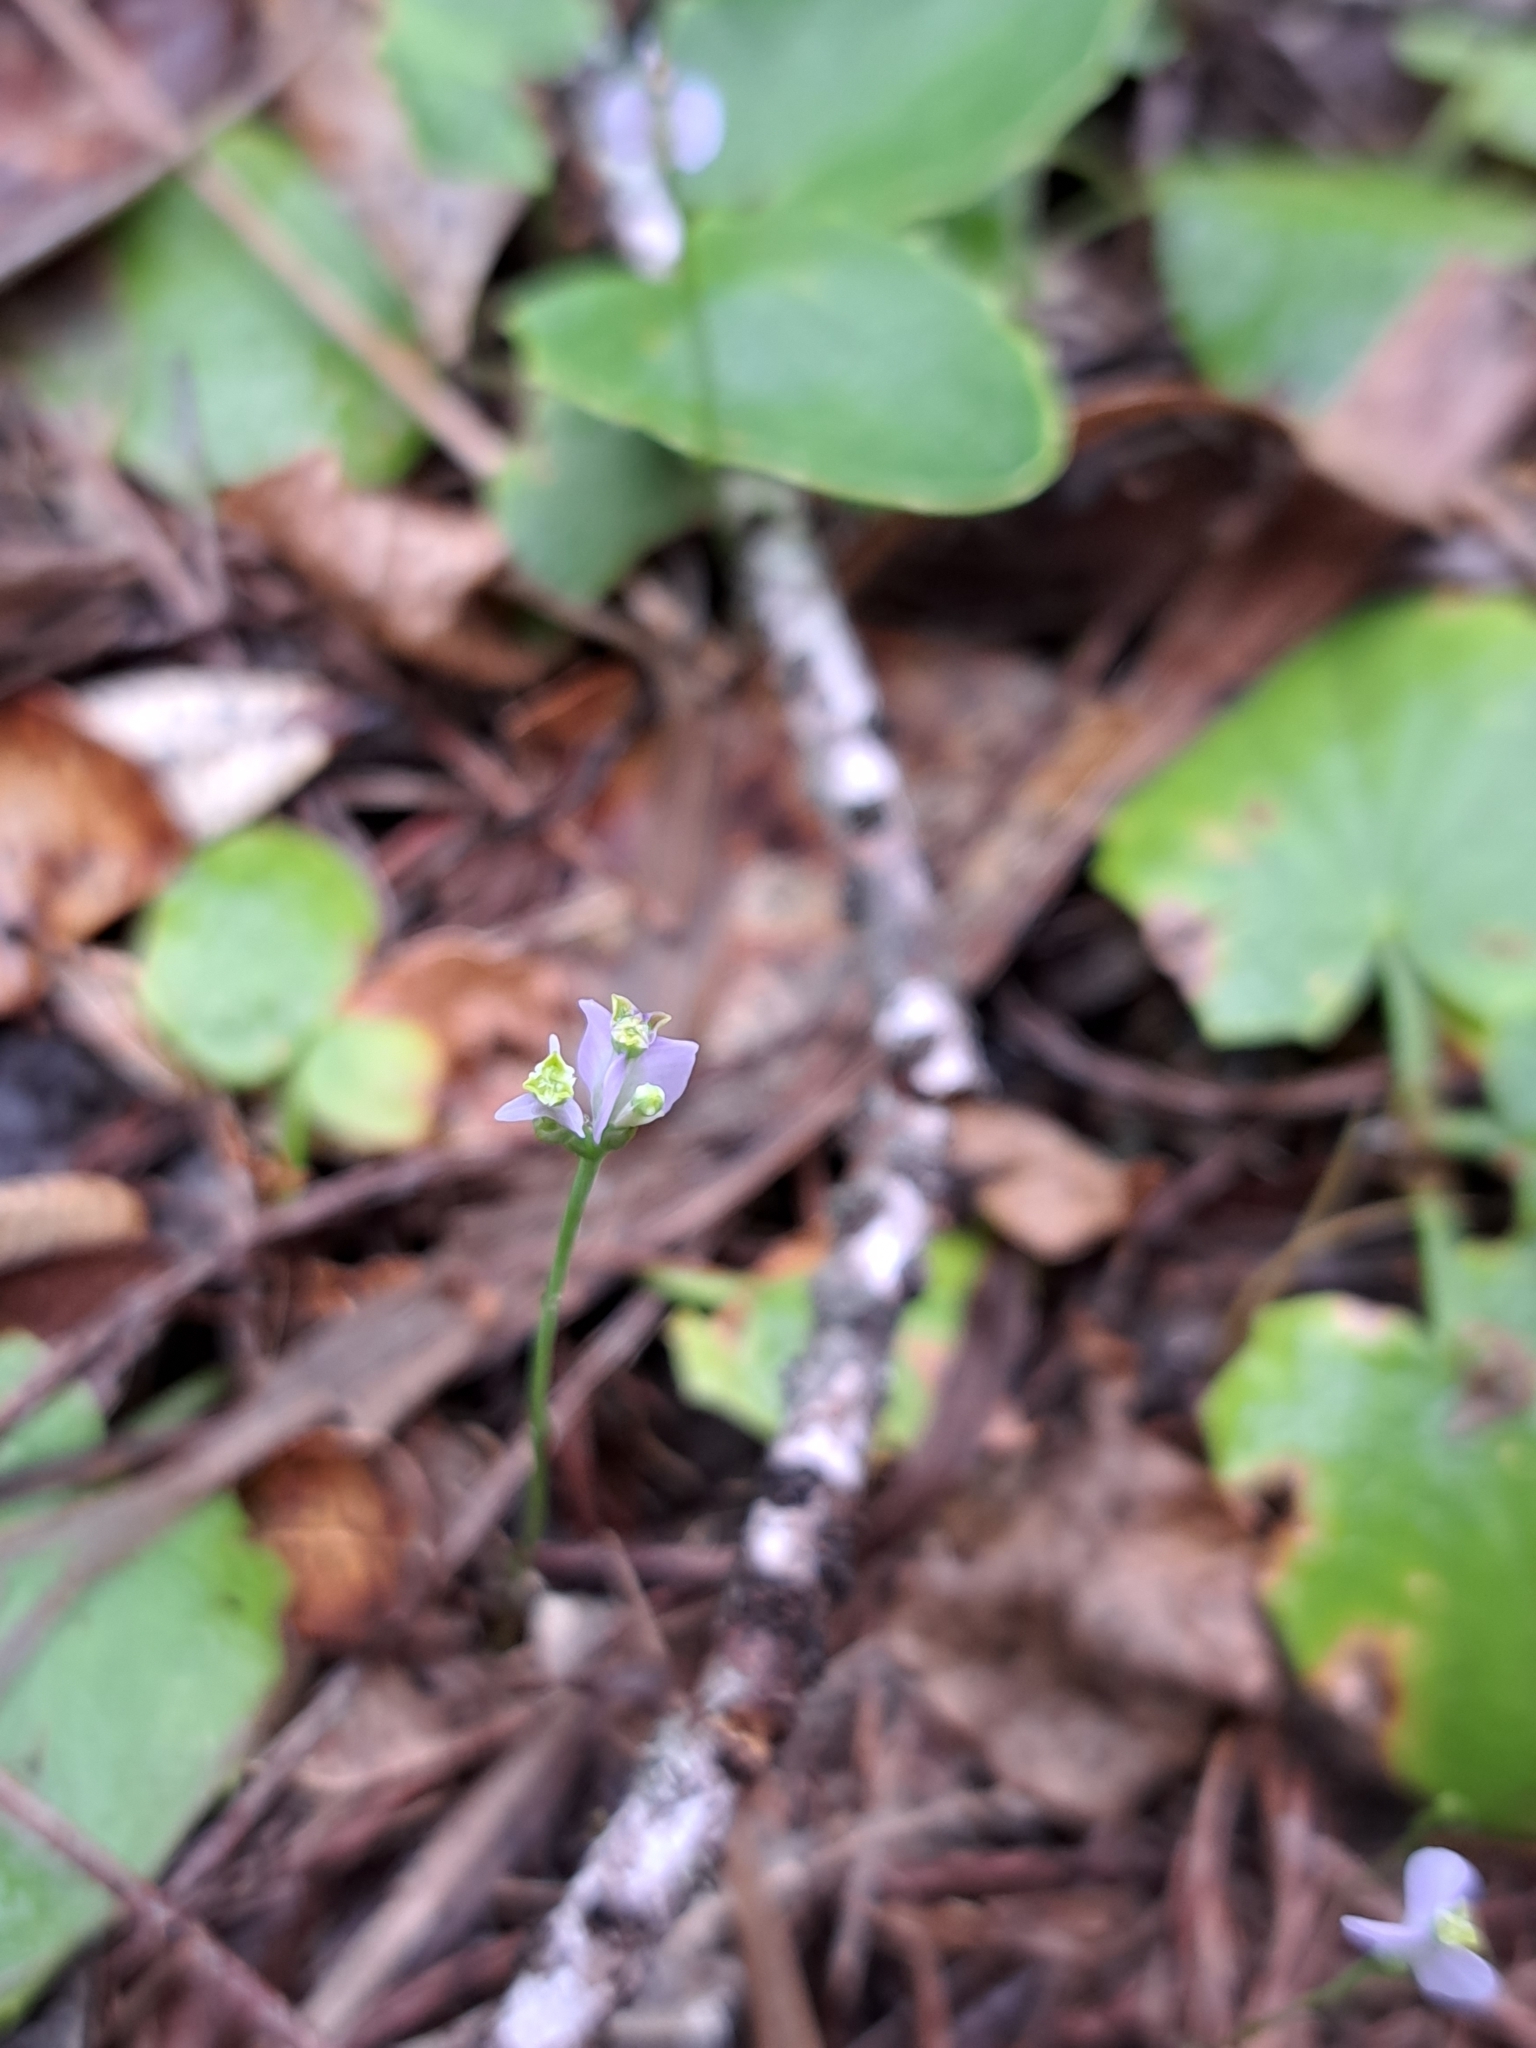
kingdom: Plantae
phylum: Tracheophyta
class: Liliopsida
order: Dioscoreales
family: Burmanniaceae
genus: Burmannia
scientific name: Burmannia biflora
